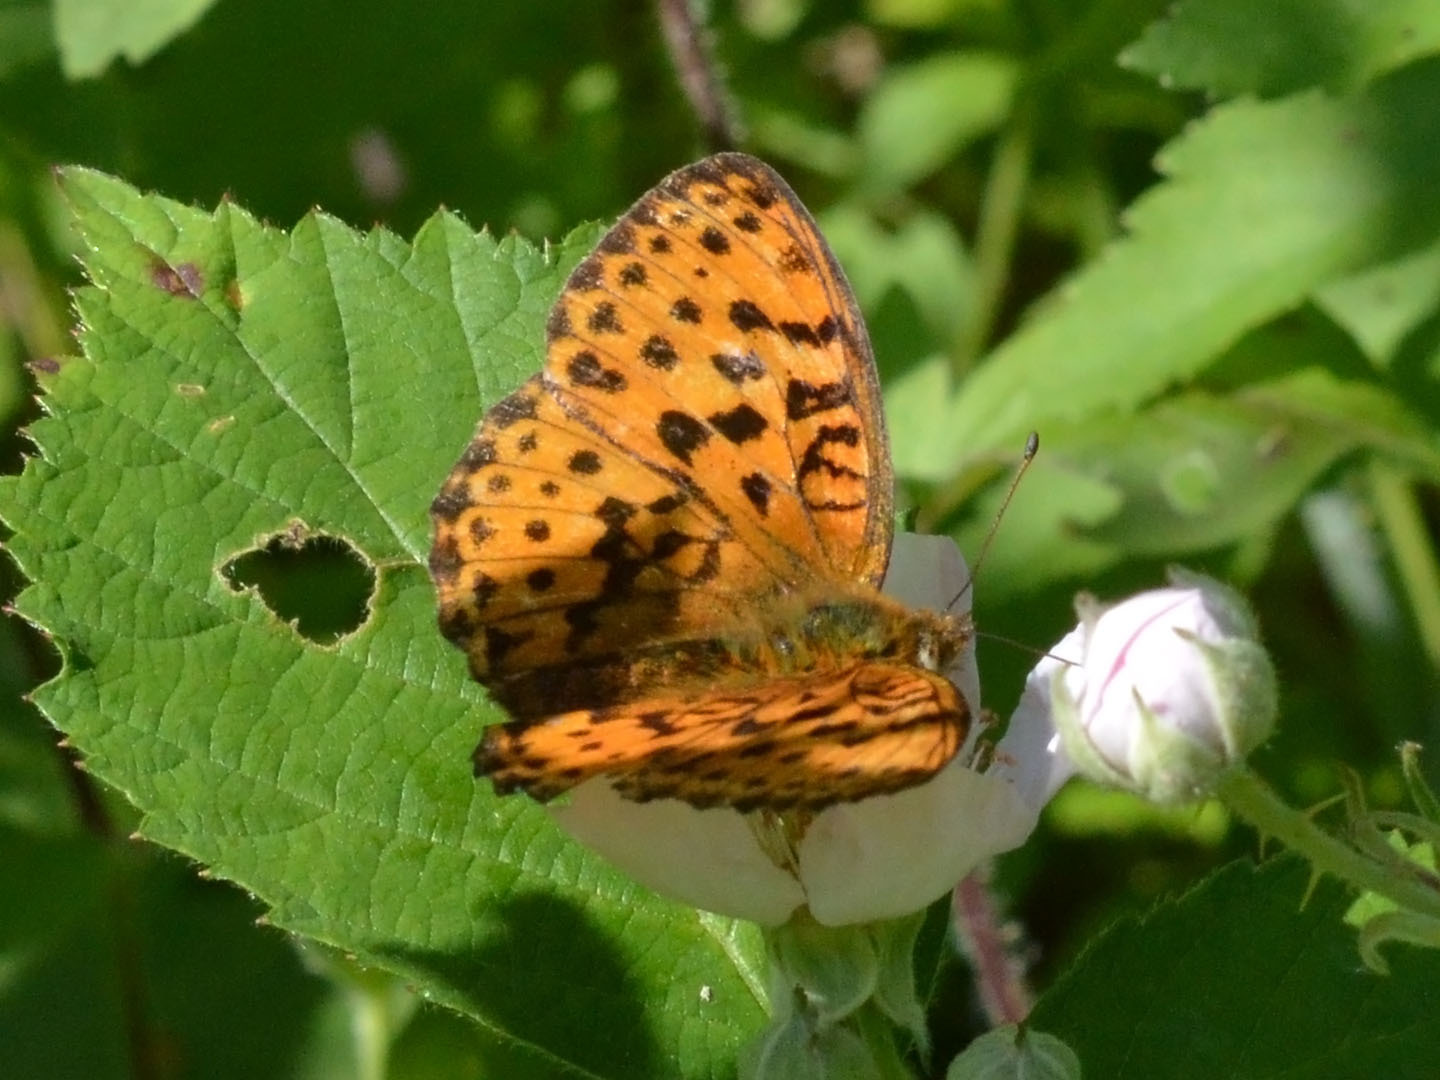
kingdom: Animalia
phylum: Arthropoda
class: Insecta
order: Lepidoptera
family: Nymphalidae
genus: Brenthis
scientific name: Brenthis daphne
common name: Marbled fritillary
